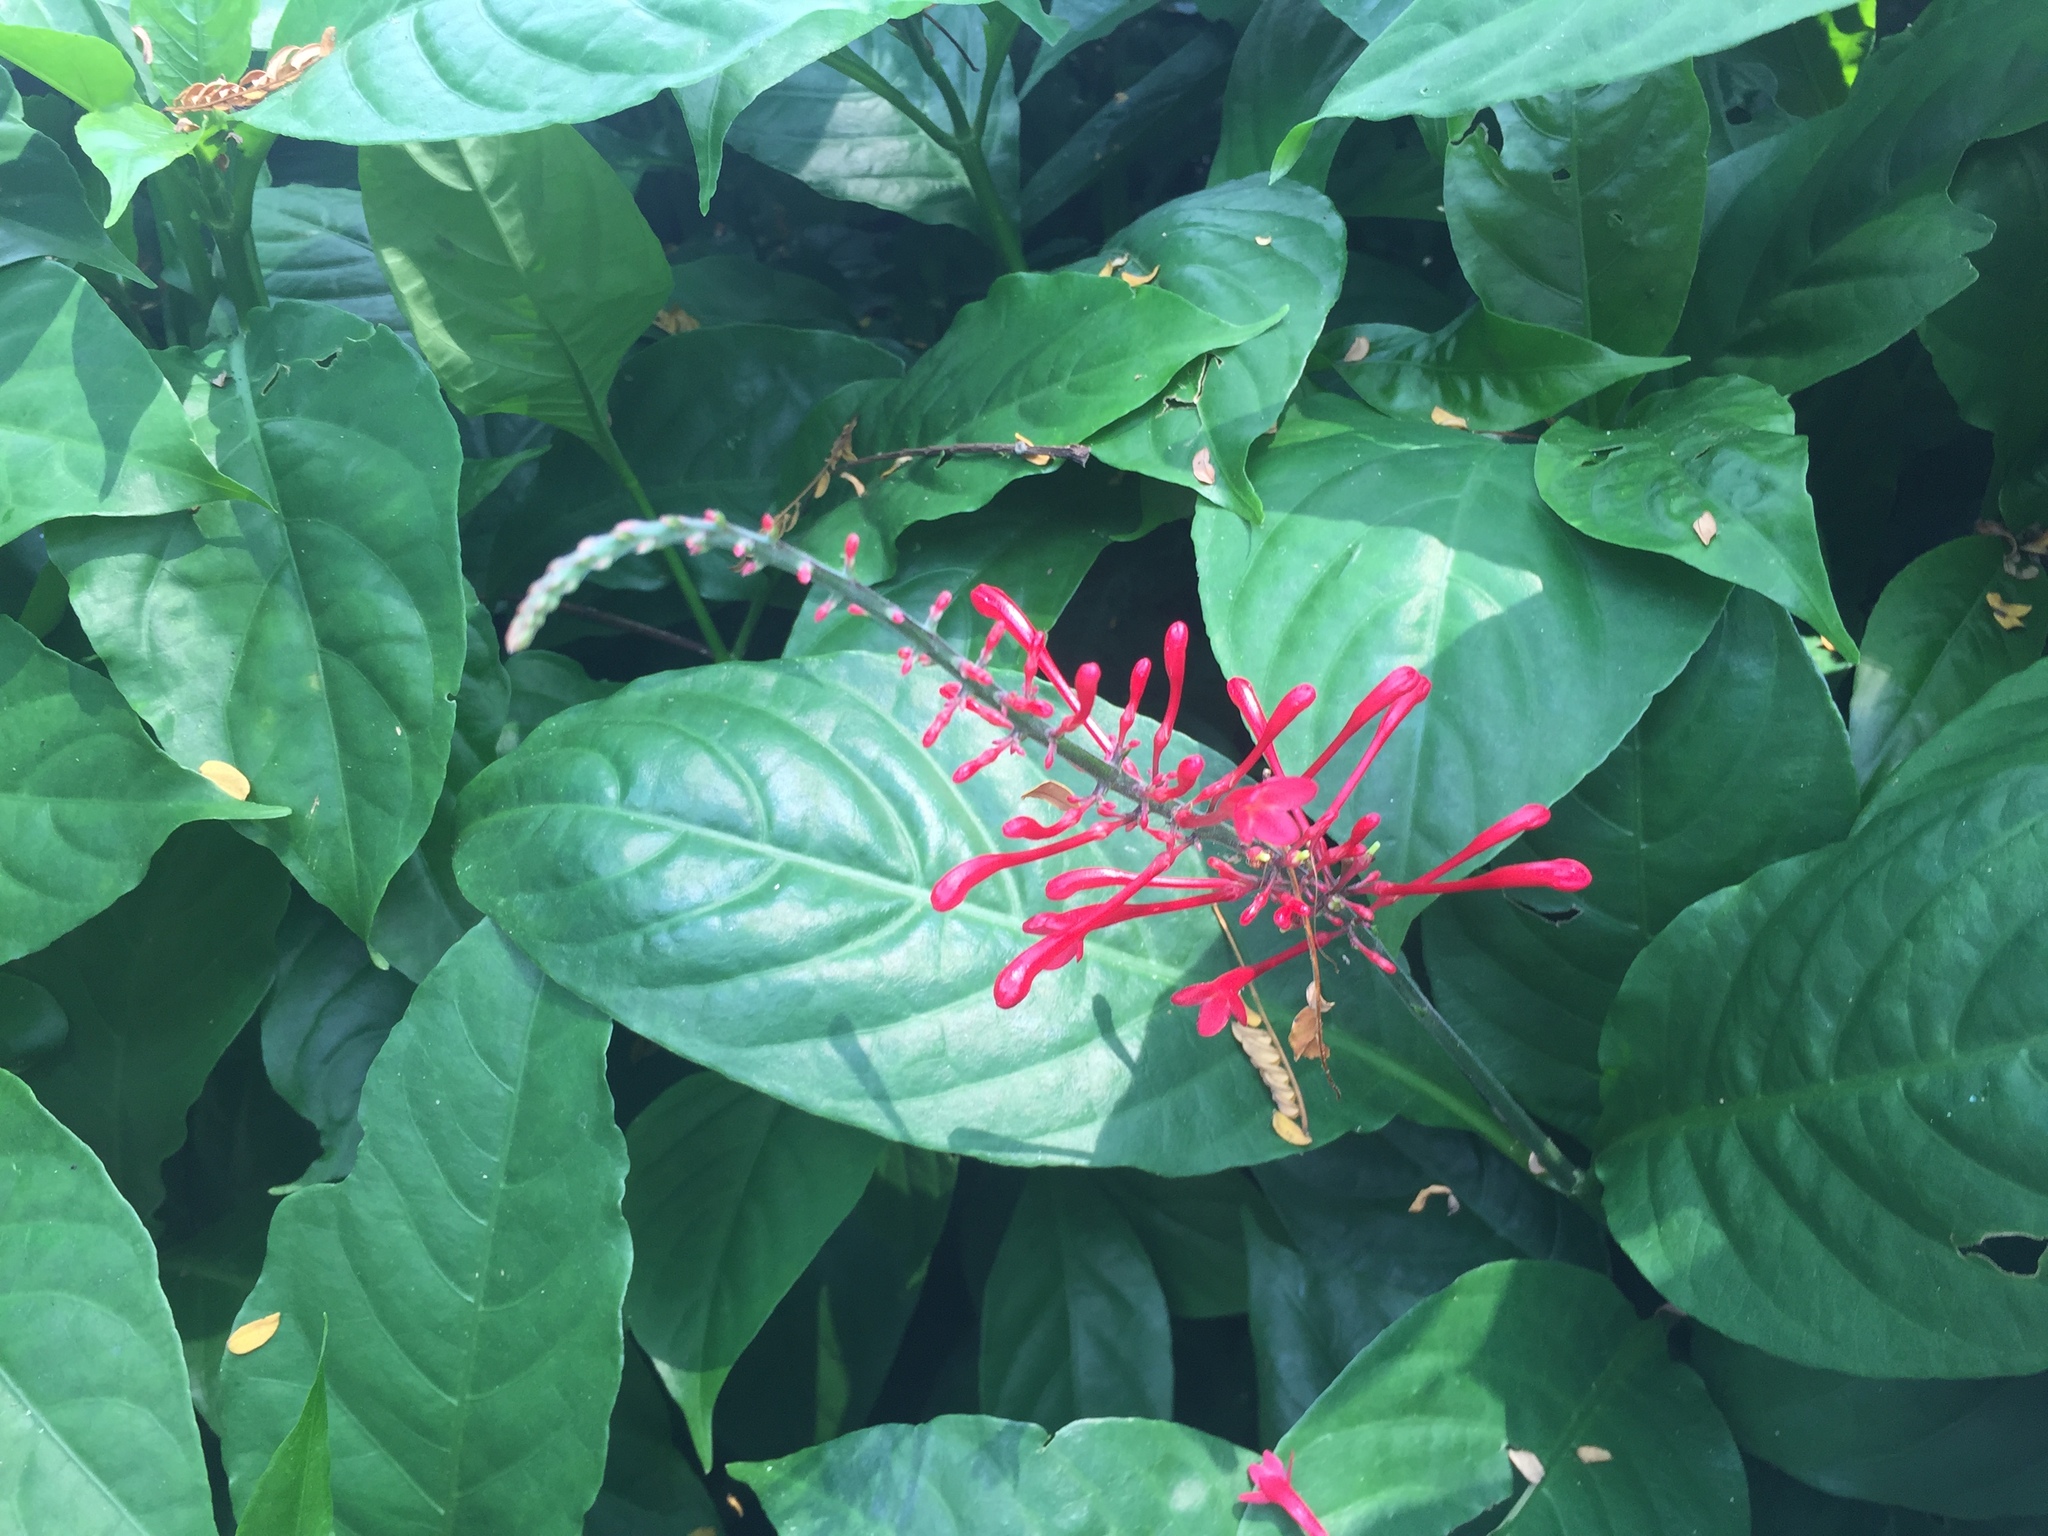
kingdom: Plantae
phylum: Tracheophyta
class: Magnoliopsida
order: Lamiales
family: Acanthaceae
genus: Odontonema
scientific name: Odontonema tubaeforme
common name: Firespike
